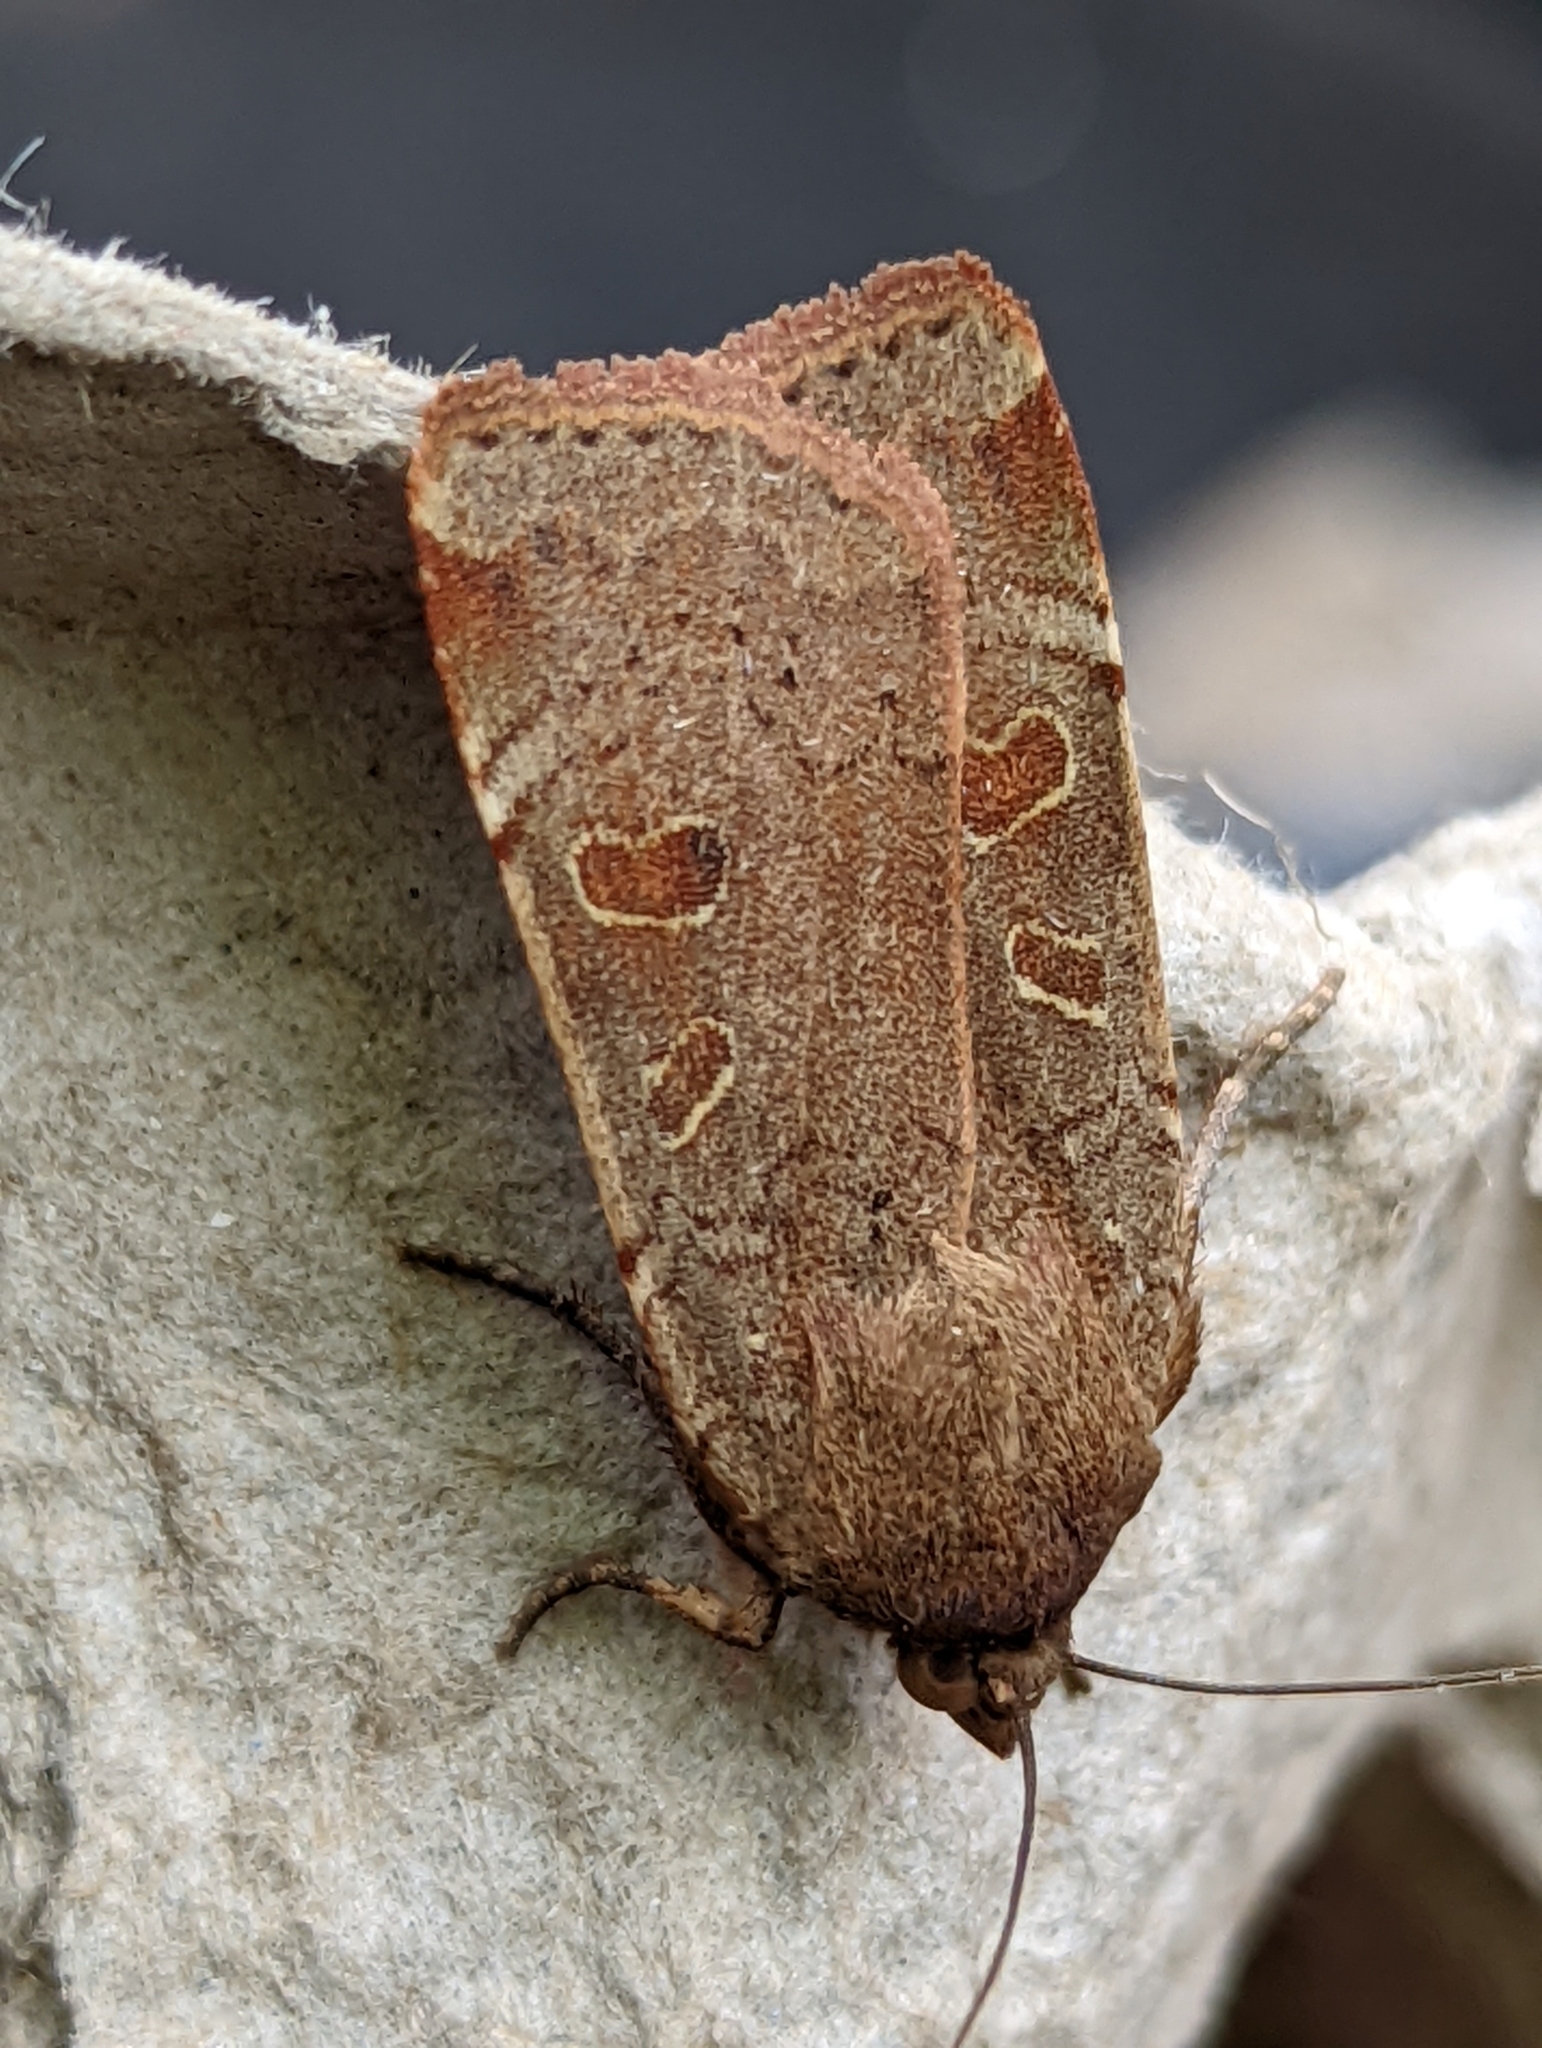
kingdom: Animalia
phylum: Arthropoda
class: Insecta
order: Lepidoptera
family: Noctuidae
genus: Noctua
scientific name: Noctua comes
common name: Lesser yellow underwing
